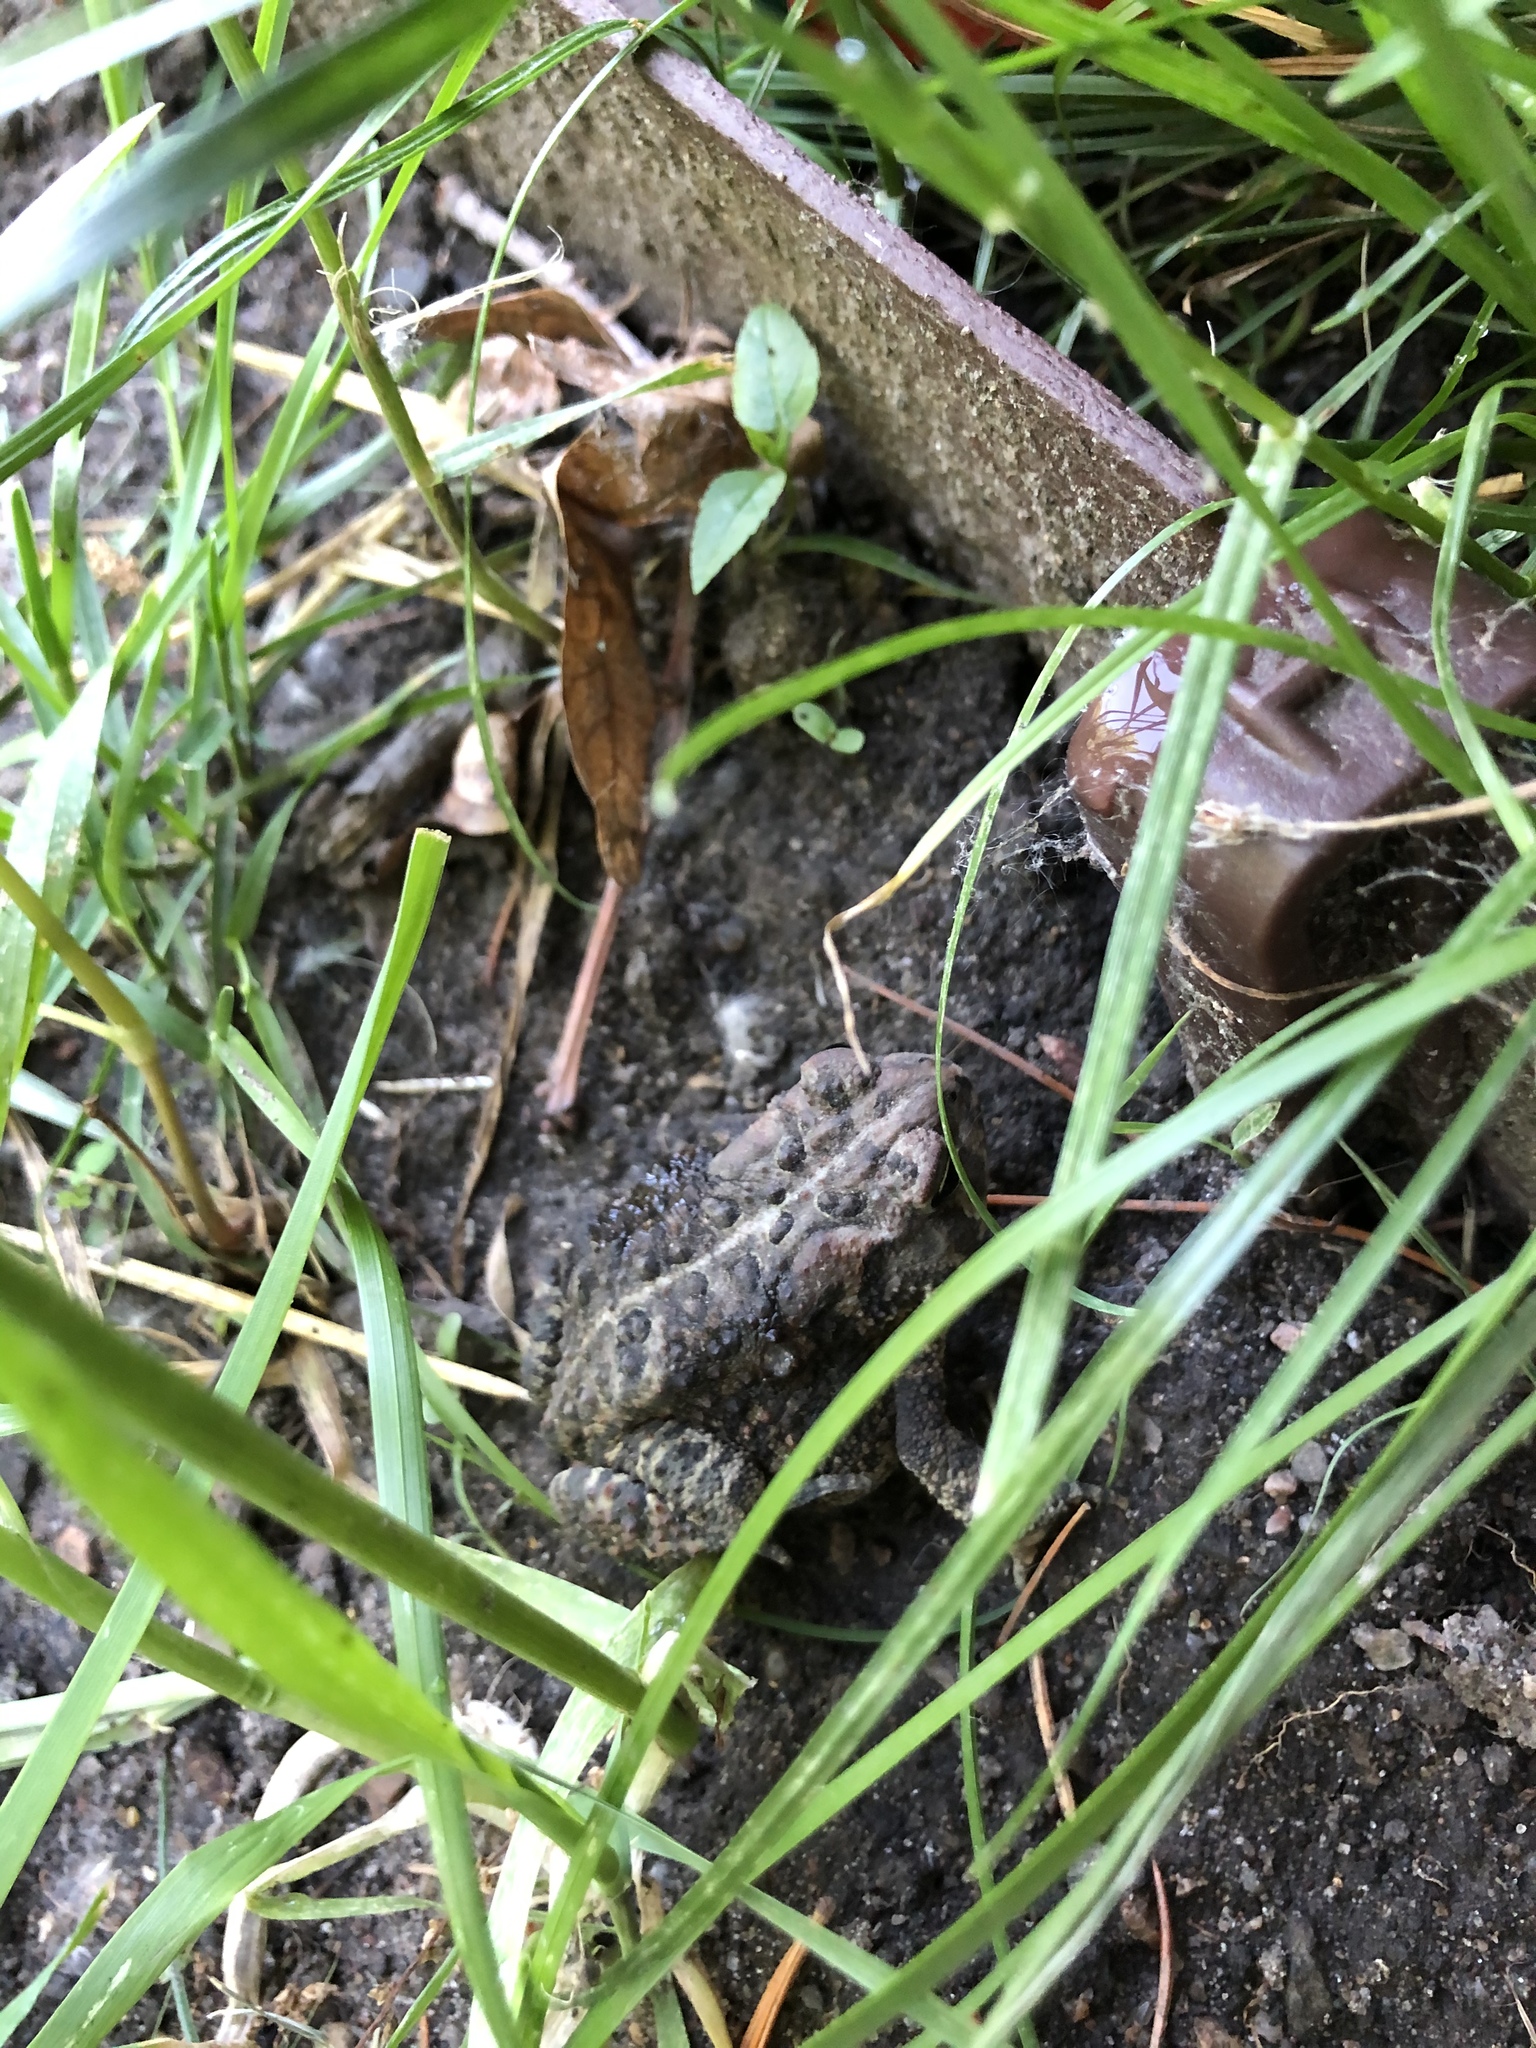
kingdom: Animalia
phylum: Chordata
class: Amphibia
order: Anura
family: Bufonidae
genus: Anaxyrus
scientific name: Anaxyrus americanus
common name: American toad
